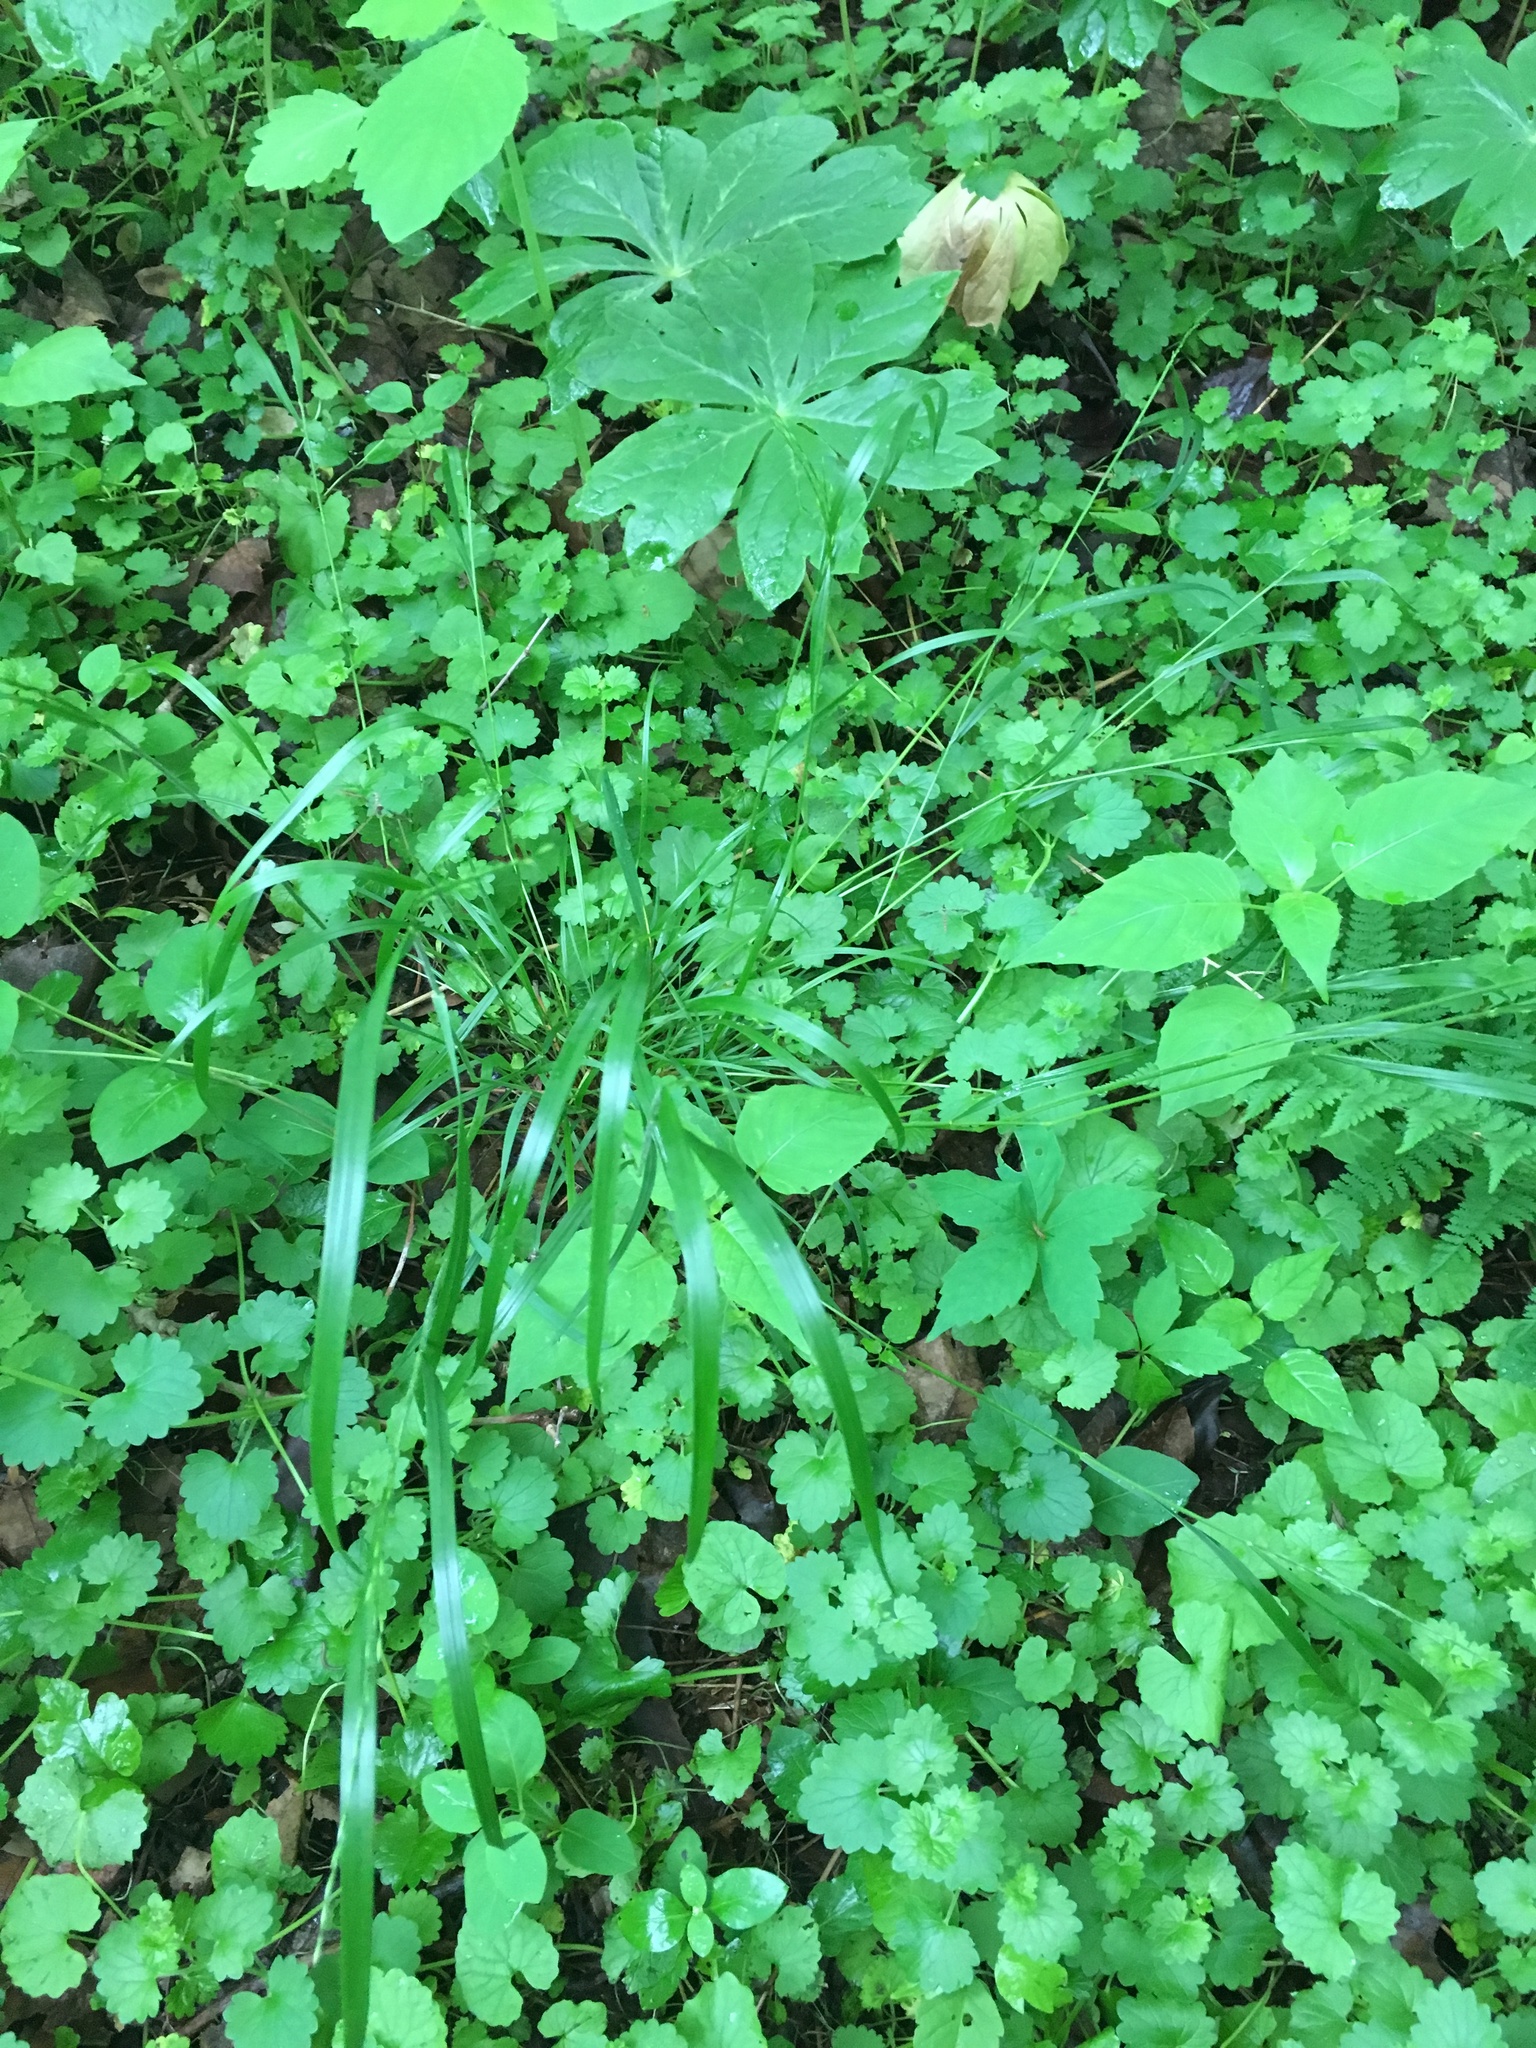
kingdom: Plantae
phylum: Tracheophyta
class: Liliopsida
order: Poales
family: Poaceae
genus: Festuca
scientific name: Festuca subverticillata
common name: Nodding fescue
